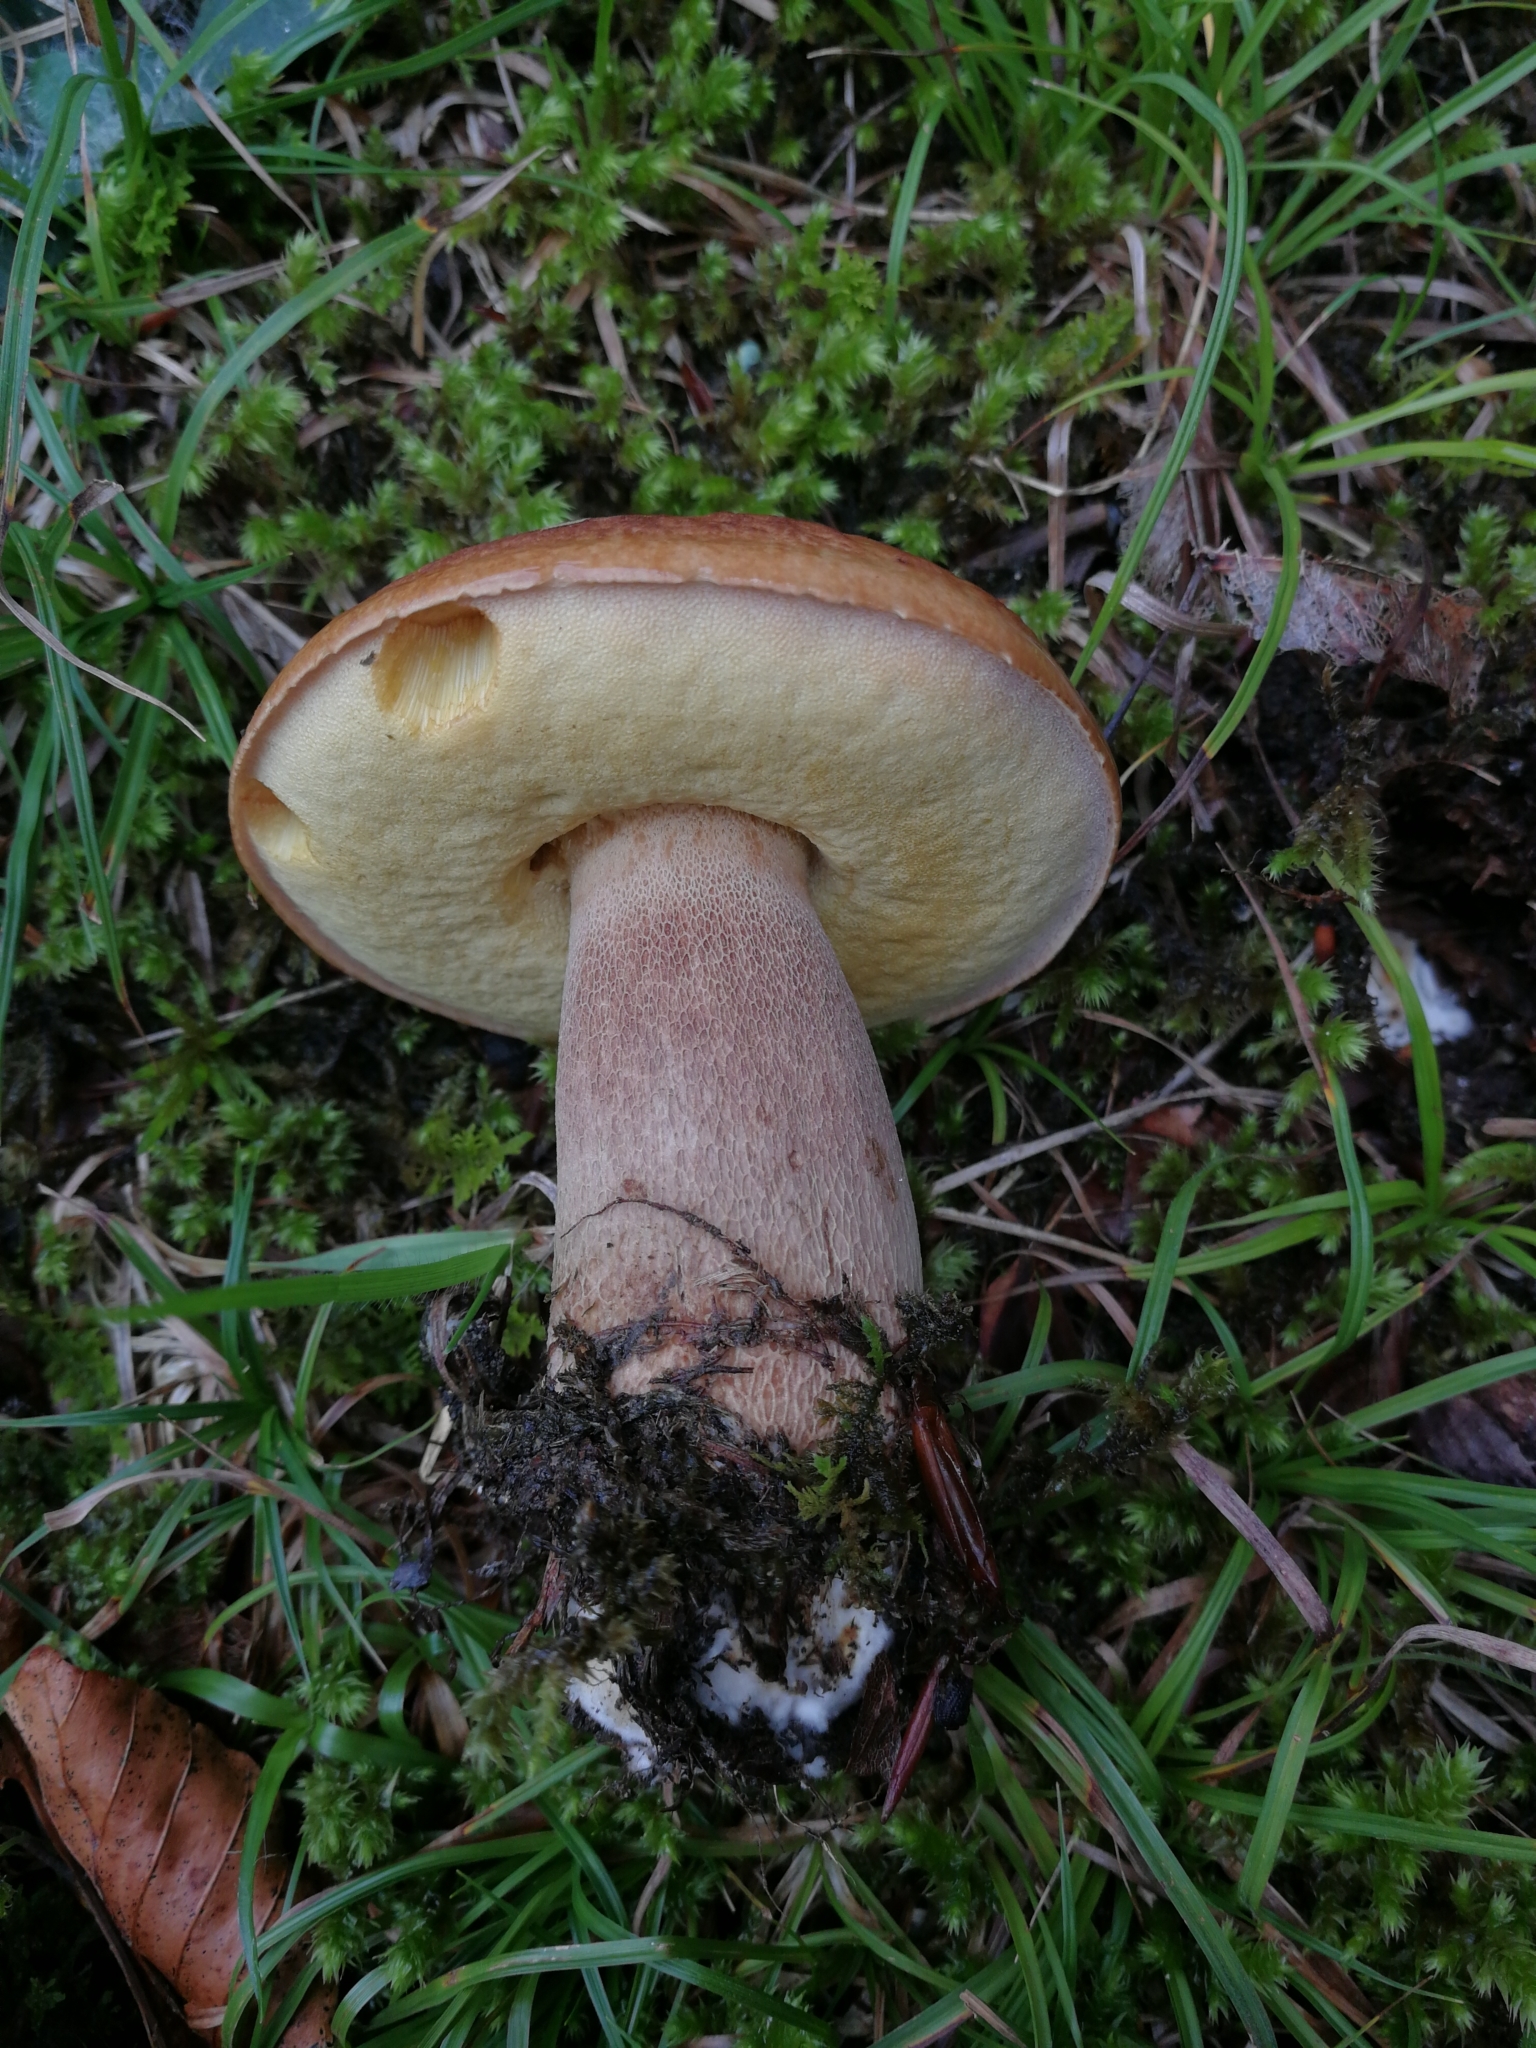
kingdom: Fungi
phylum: Basidiomycota
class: Agaricomycetes
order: Boletales
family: Boletaceae
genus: Boletus
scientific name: Boletus reticulatus
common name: Summer bolete
